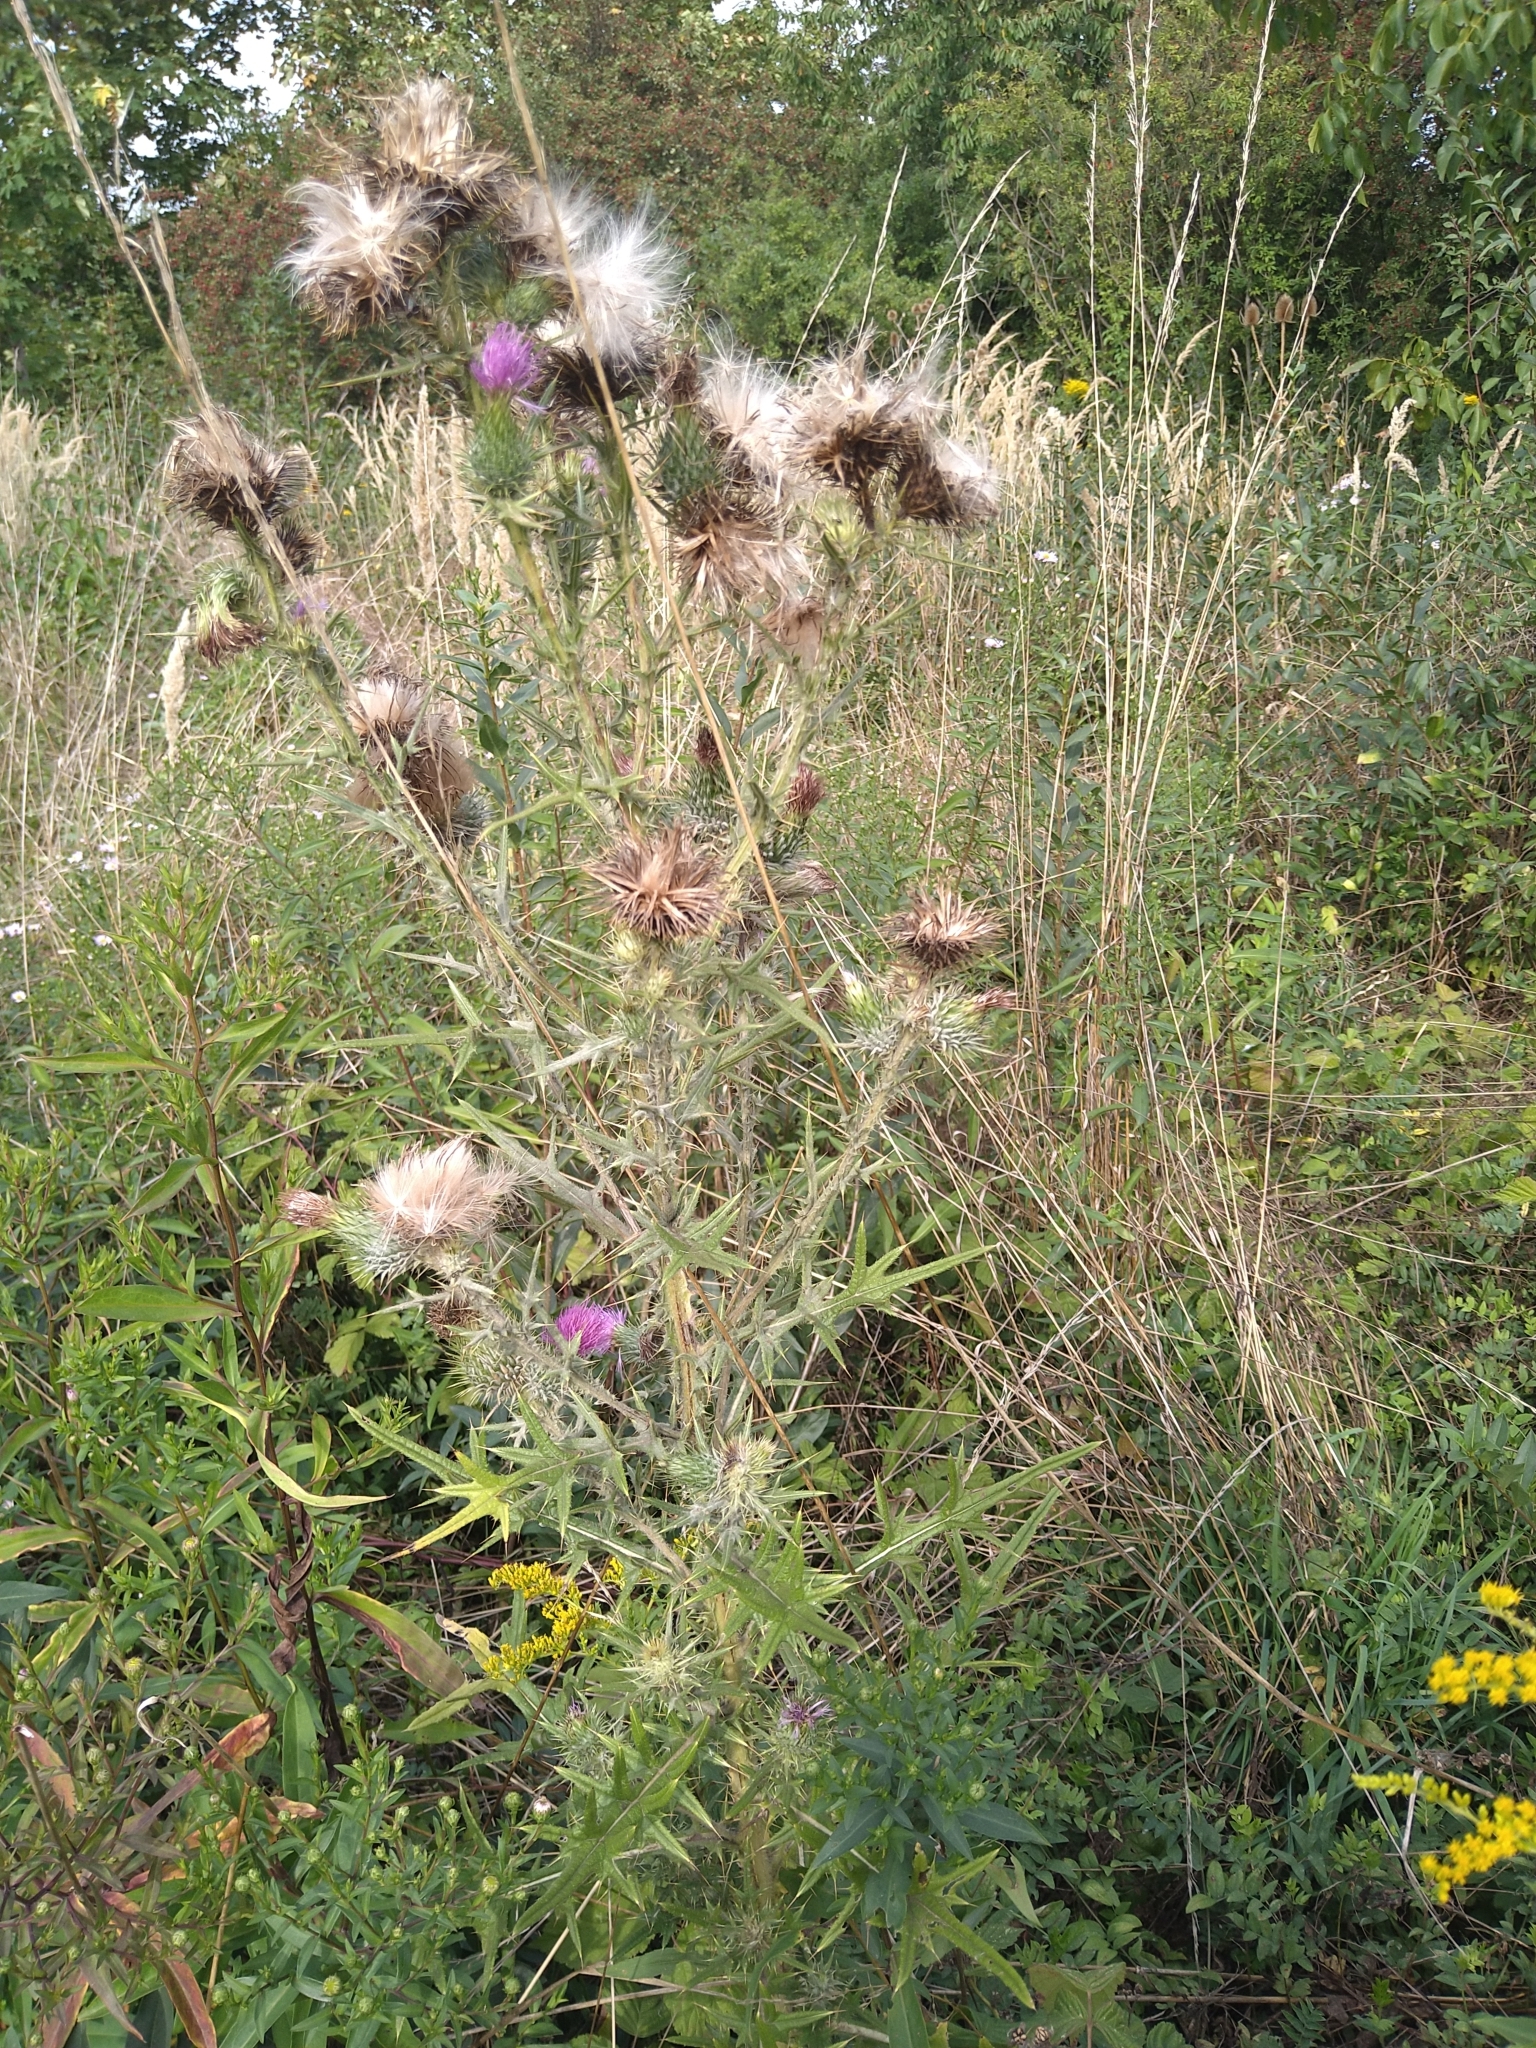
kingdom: Plantae
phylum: Tracheophyta
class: Magnoliopsida
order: Asterales
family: Asteraceae
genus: Cirsium
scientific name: Cirsium vulgare
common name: Bull thistle
